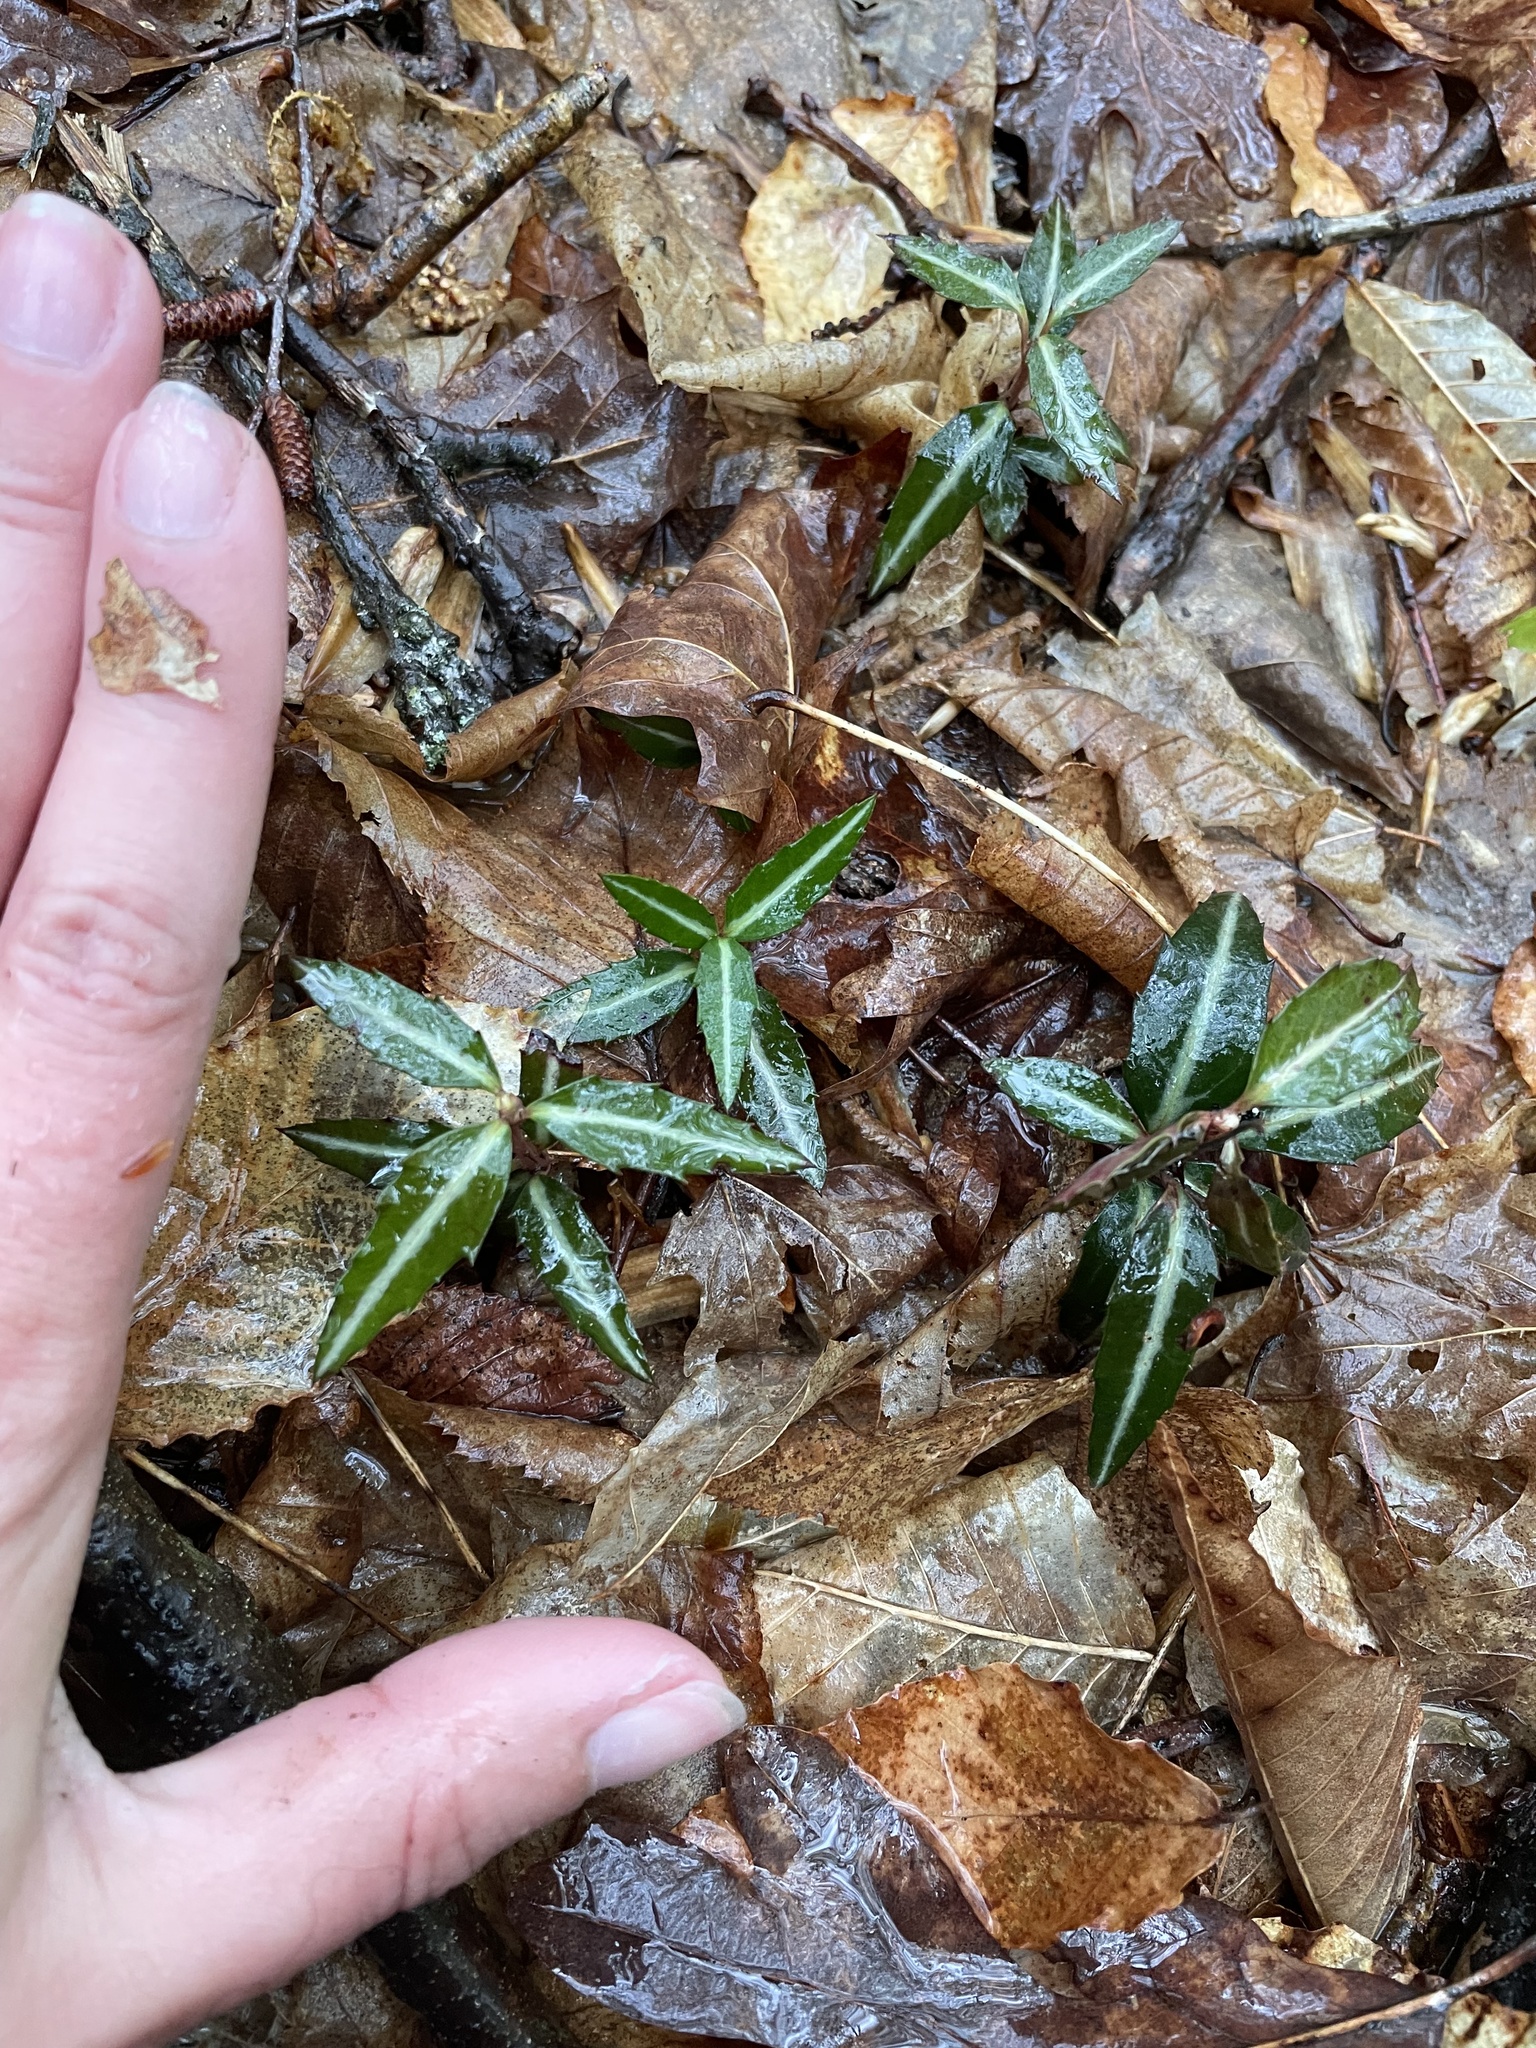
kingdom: Plantae
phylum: Tracheophyta
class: Magnoliopsida
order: Ericales
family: Ericaceae
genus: Chimaphila
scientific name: Chimaphila maculata
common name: Spotted pipsissewa
